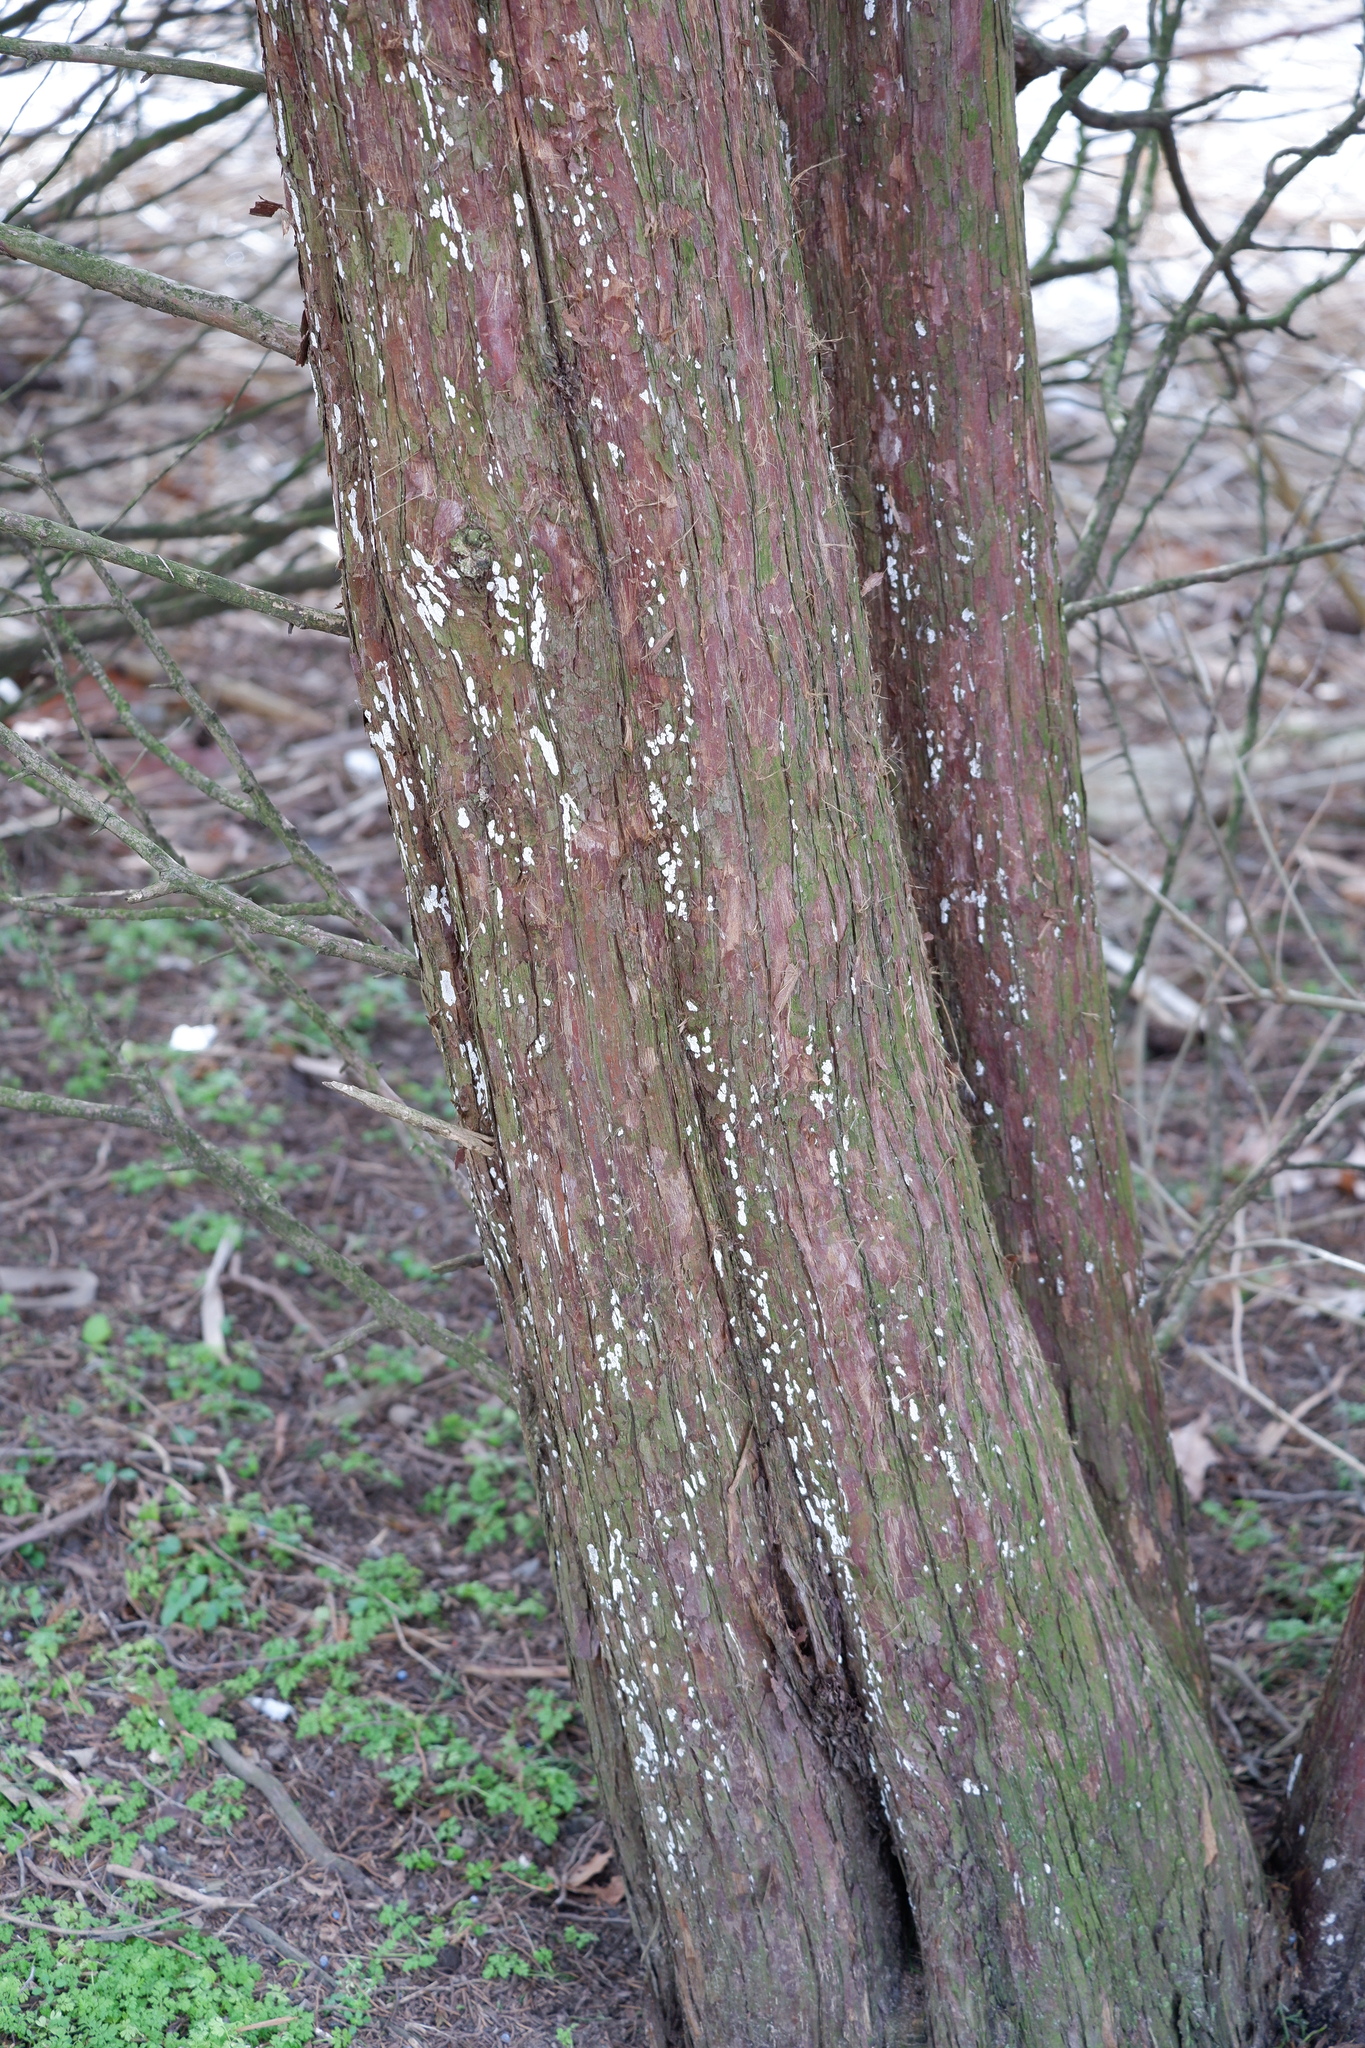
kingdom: Fungi
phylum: Basidiomycota
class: Agaricomycetes
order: Agaricales
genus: Dendrothele
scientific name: Dendrothele nivosa
